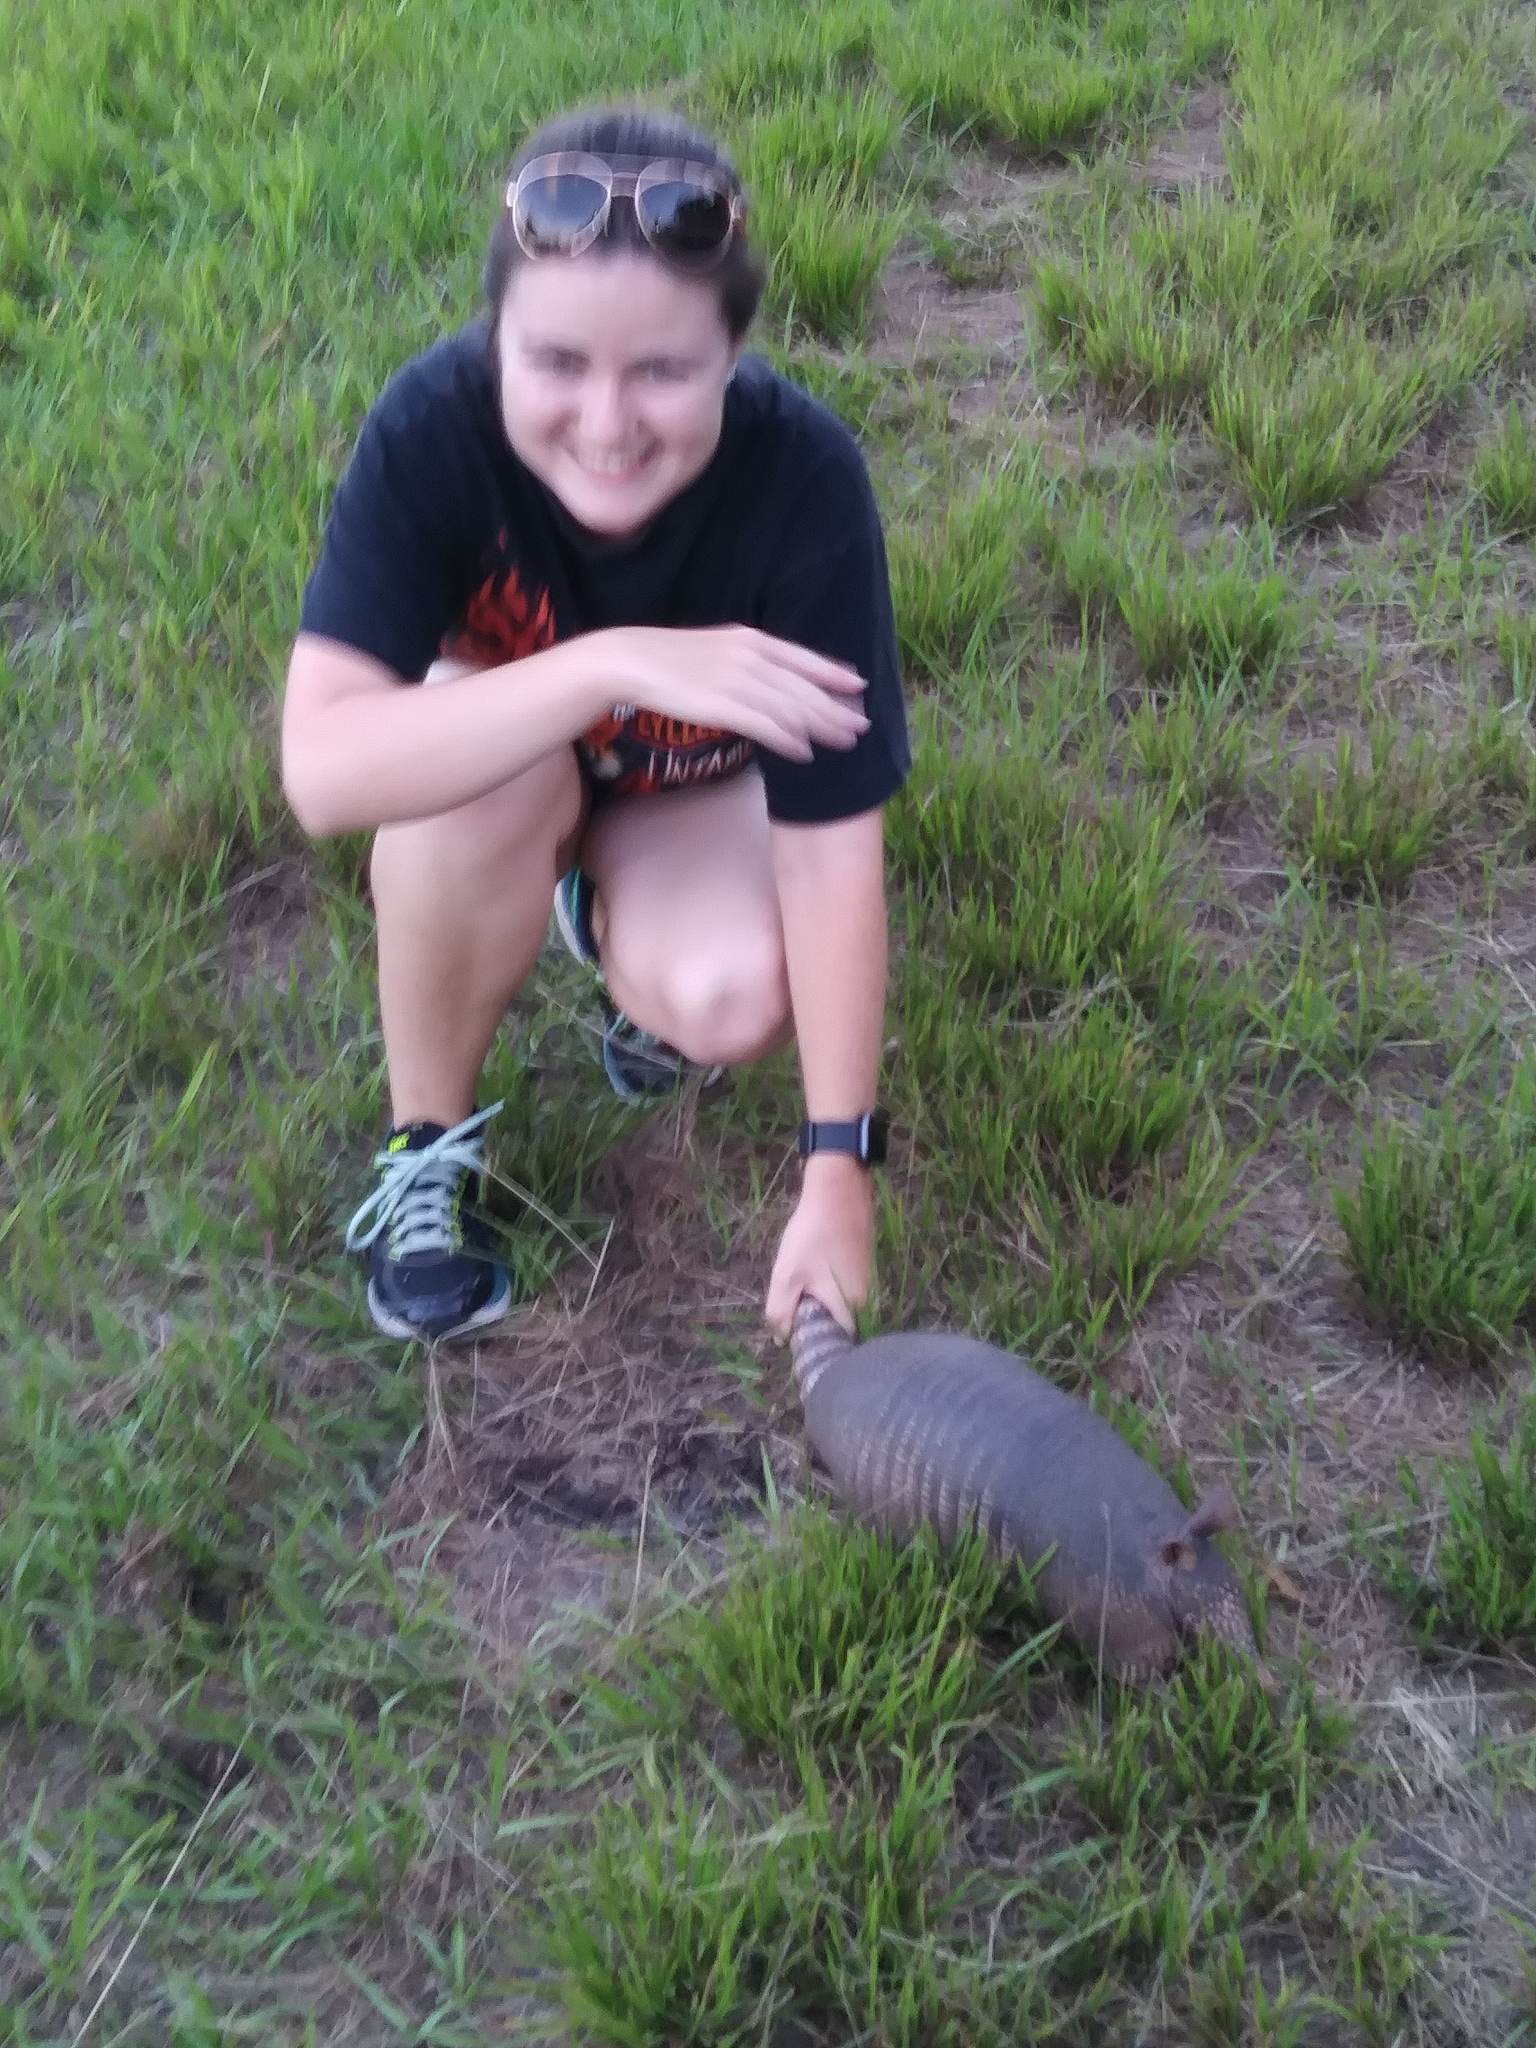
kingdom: Animalia
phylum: Chordata
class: Mammalia
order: Cingulata
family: Dasypodidae
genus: Dasypus
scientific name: Dasypus novemcinctus
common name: Nine-banded armadillo
